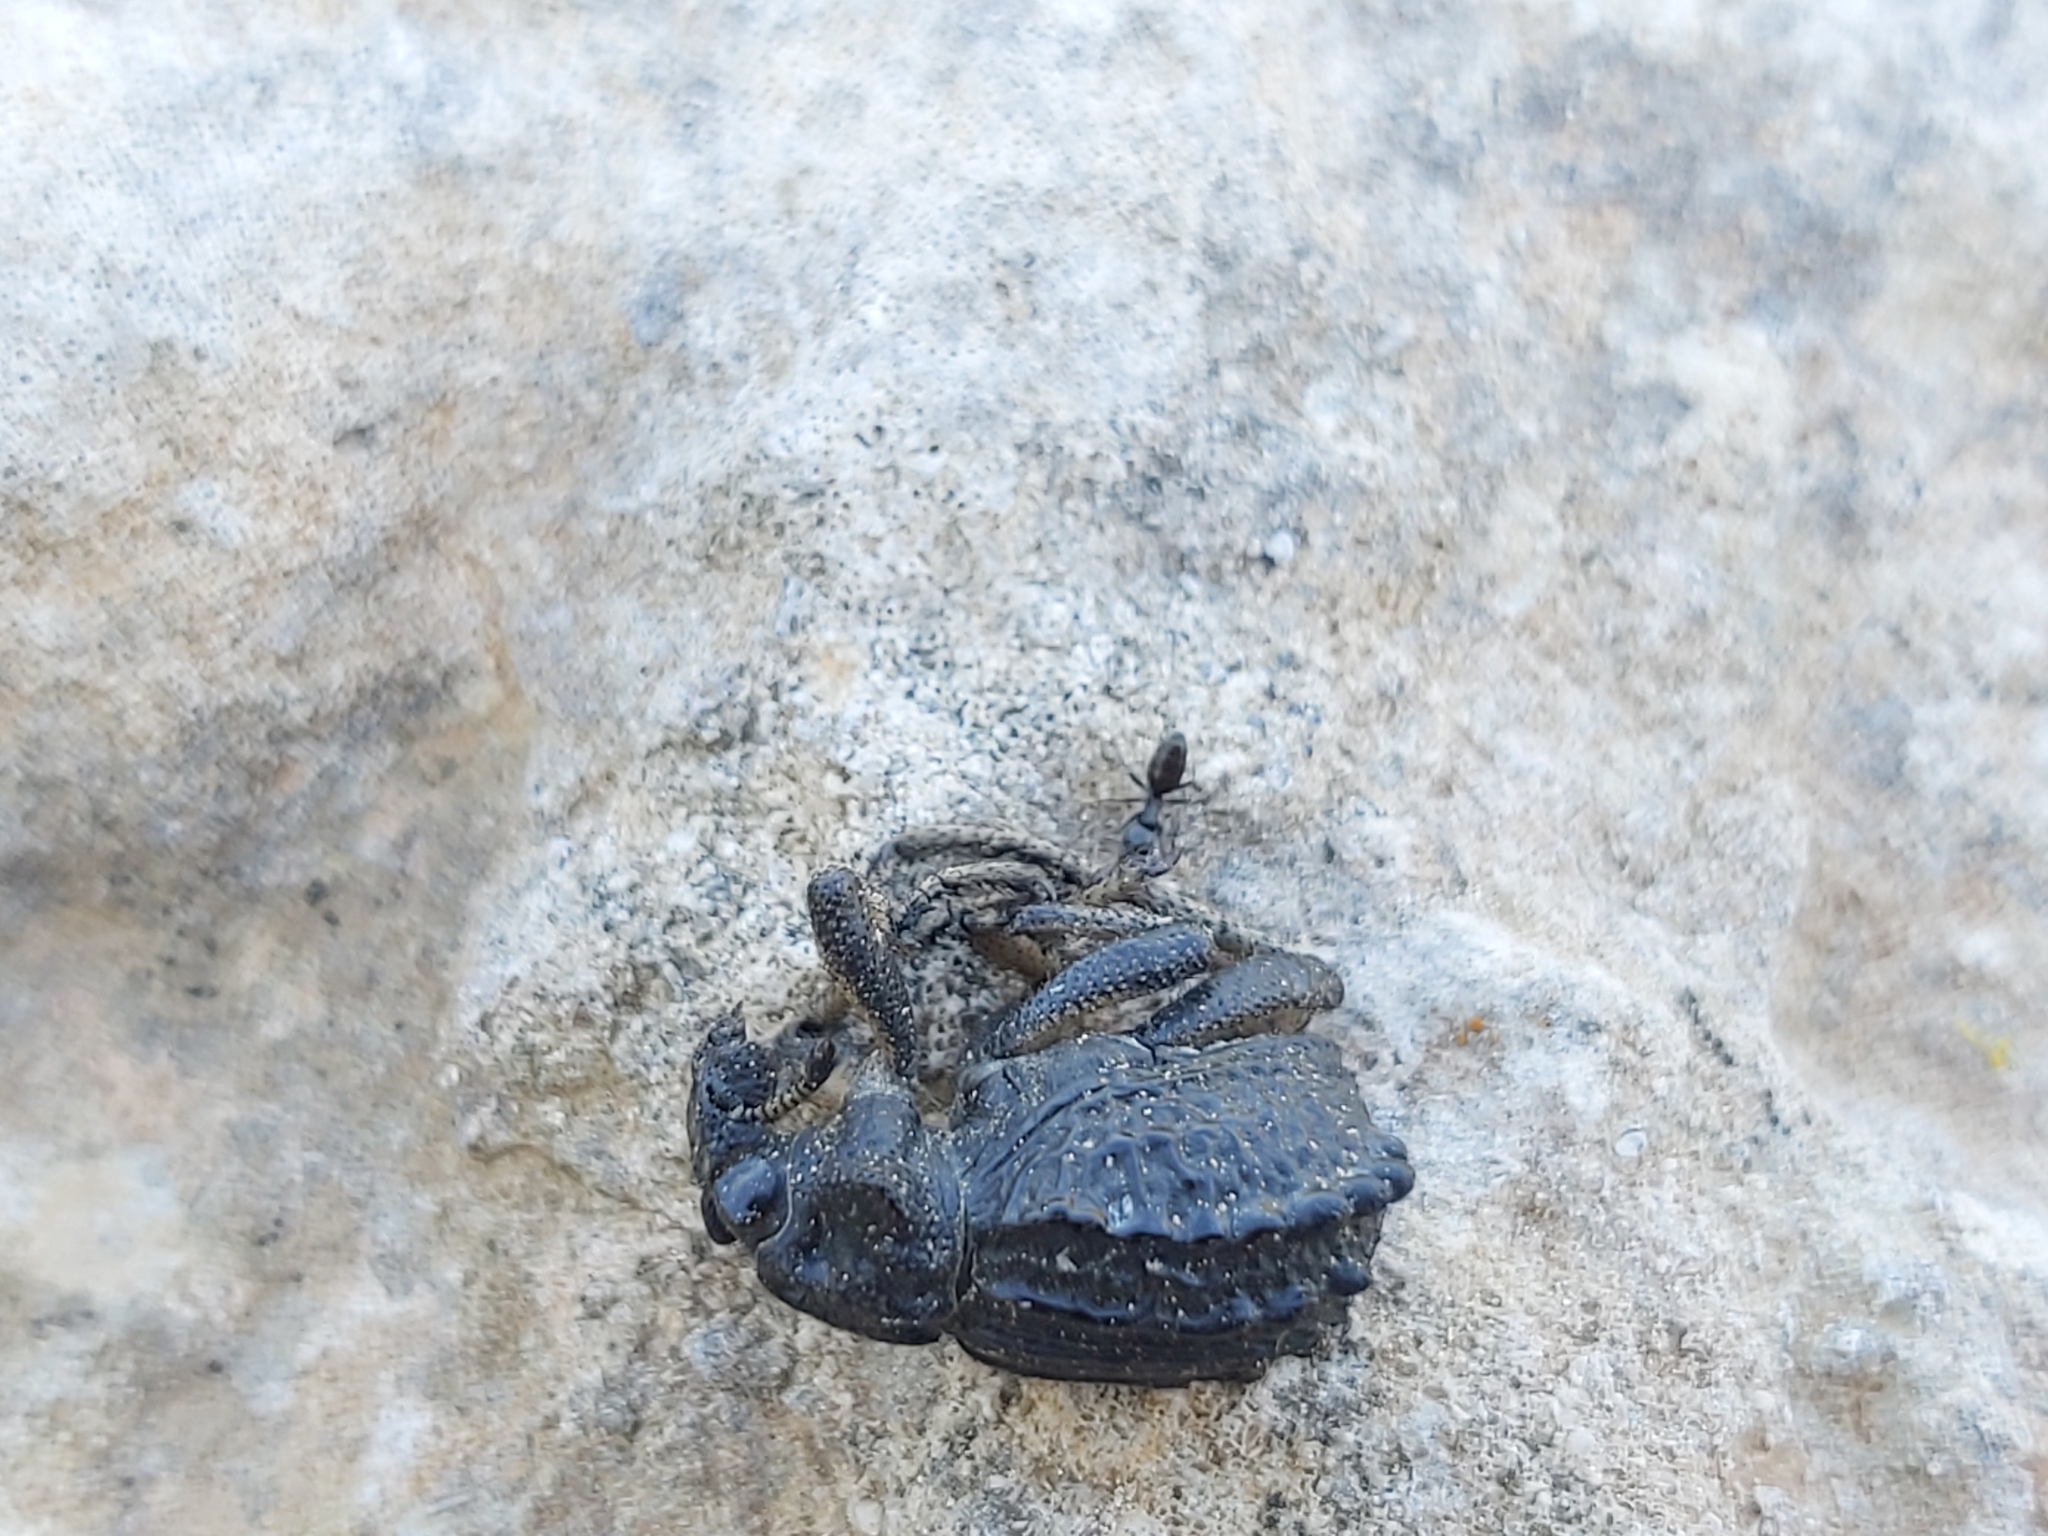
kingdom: Animalia
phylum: Arthropoda
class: Insecta
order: Coleoptera
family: Brachyceridae
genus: Brachycerus
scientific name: Brachycerus undatus
